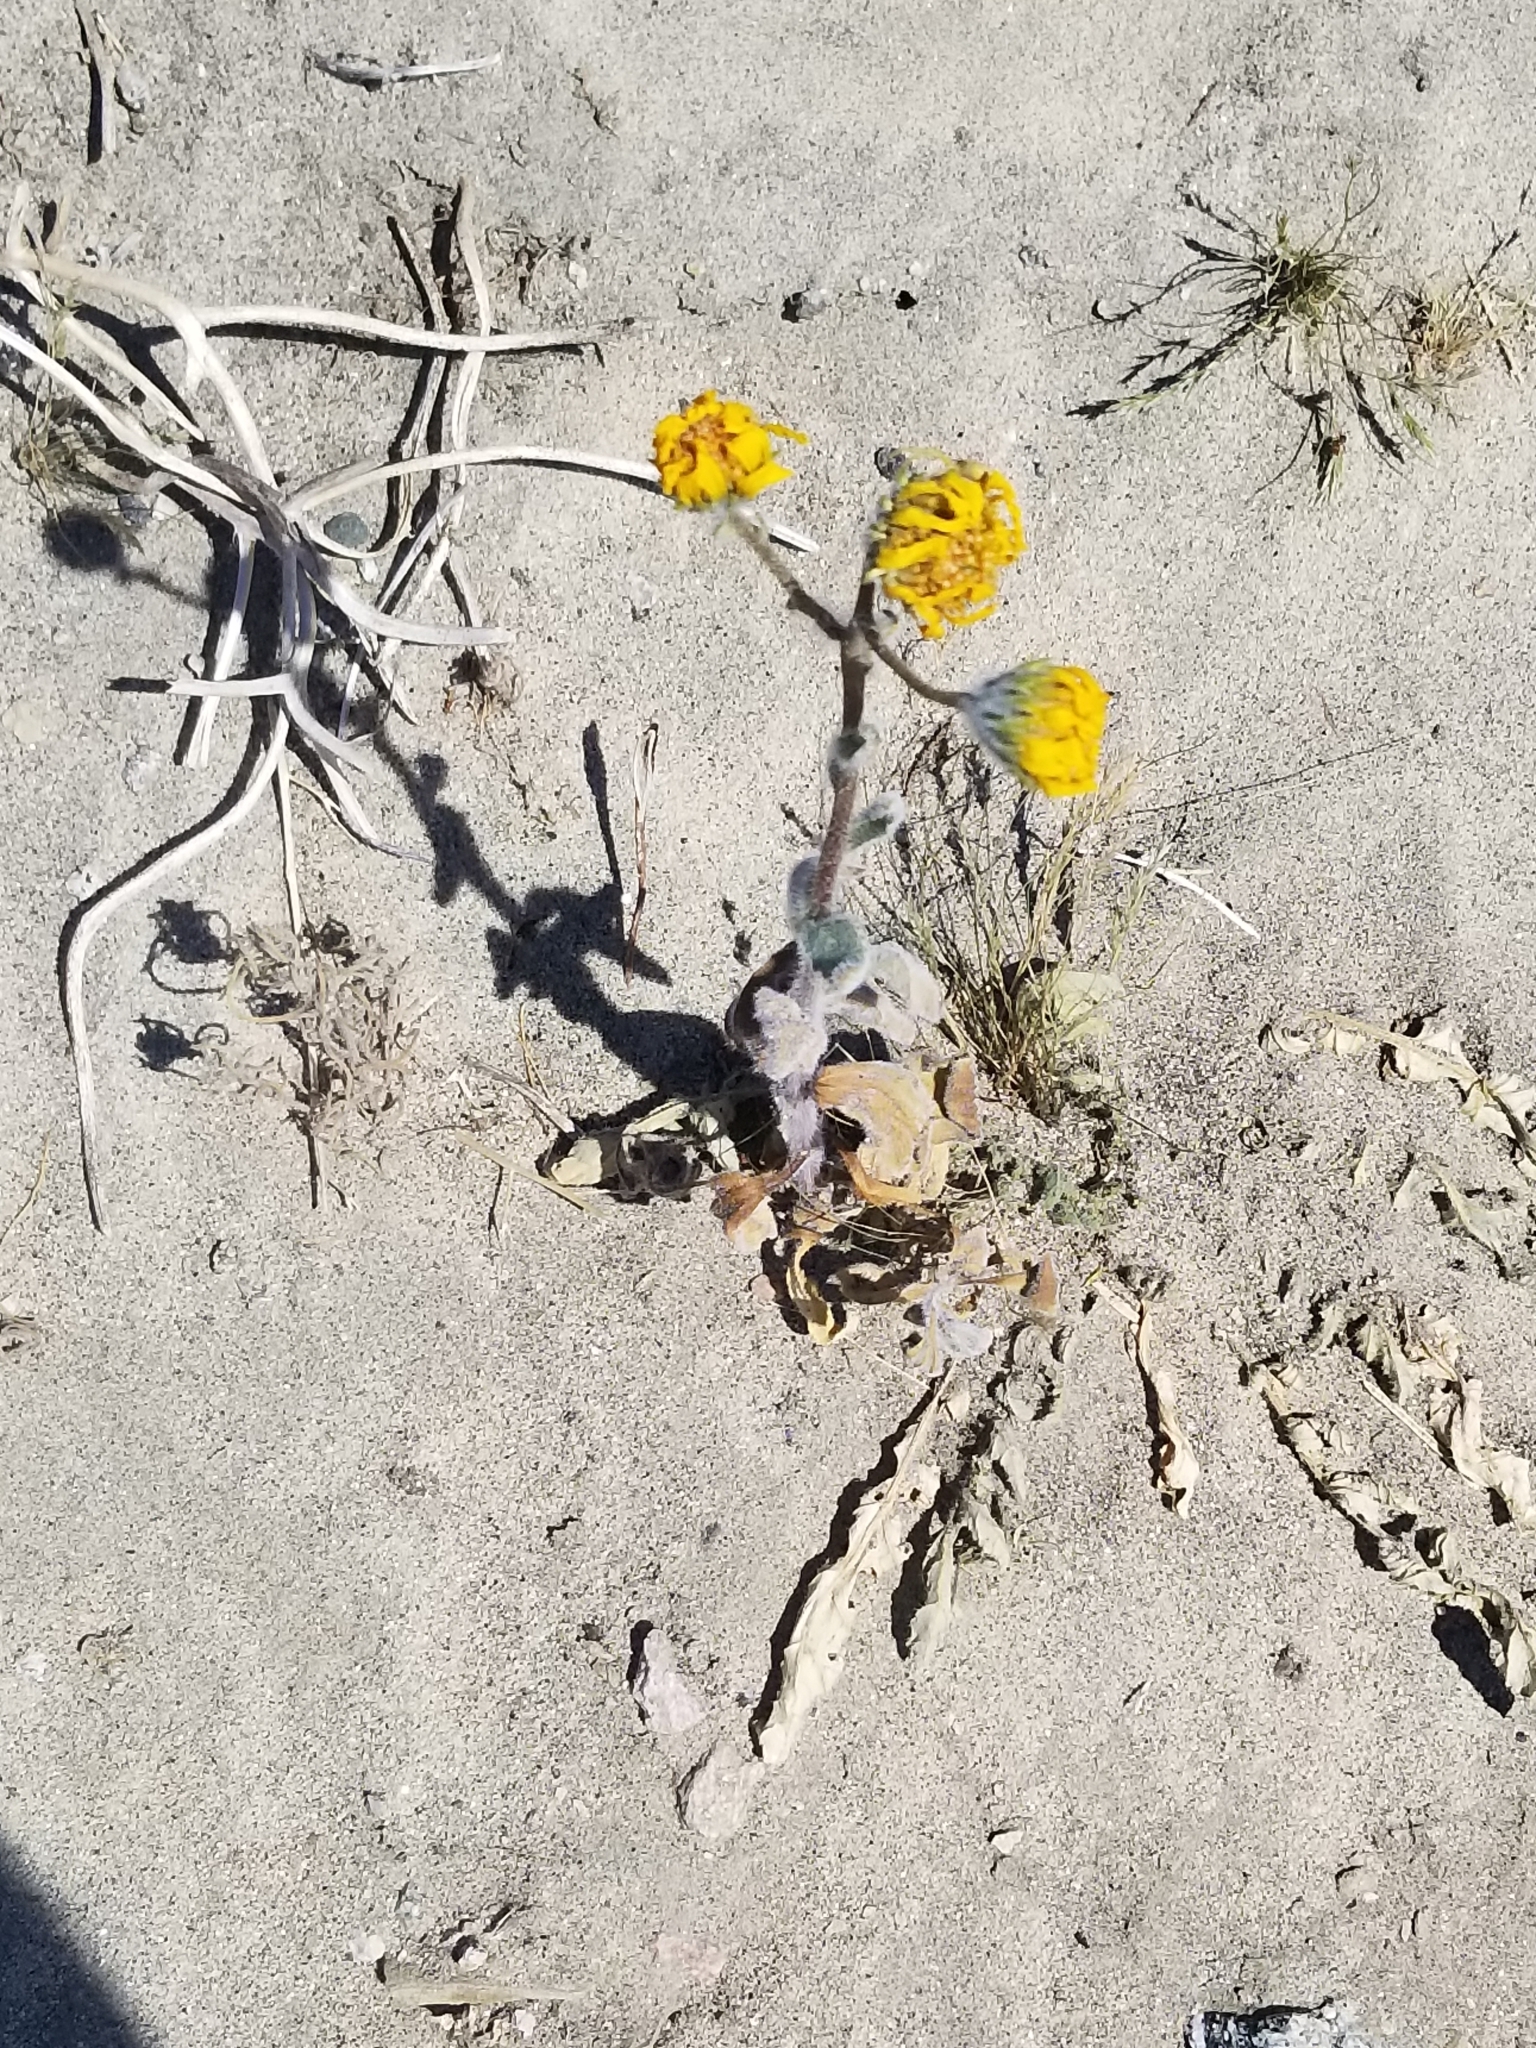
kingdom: Plantae
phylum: Tracheophyta
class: Magnoliopsida
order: Asterales
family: Asteraceae
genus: Geraea
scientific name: Geraea canescens
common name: Desert-gold
